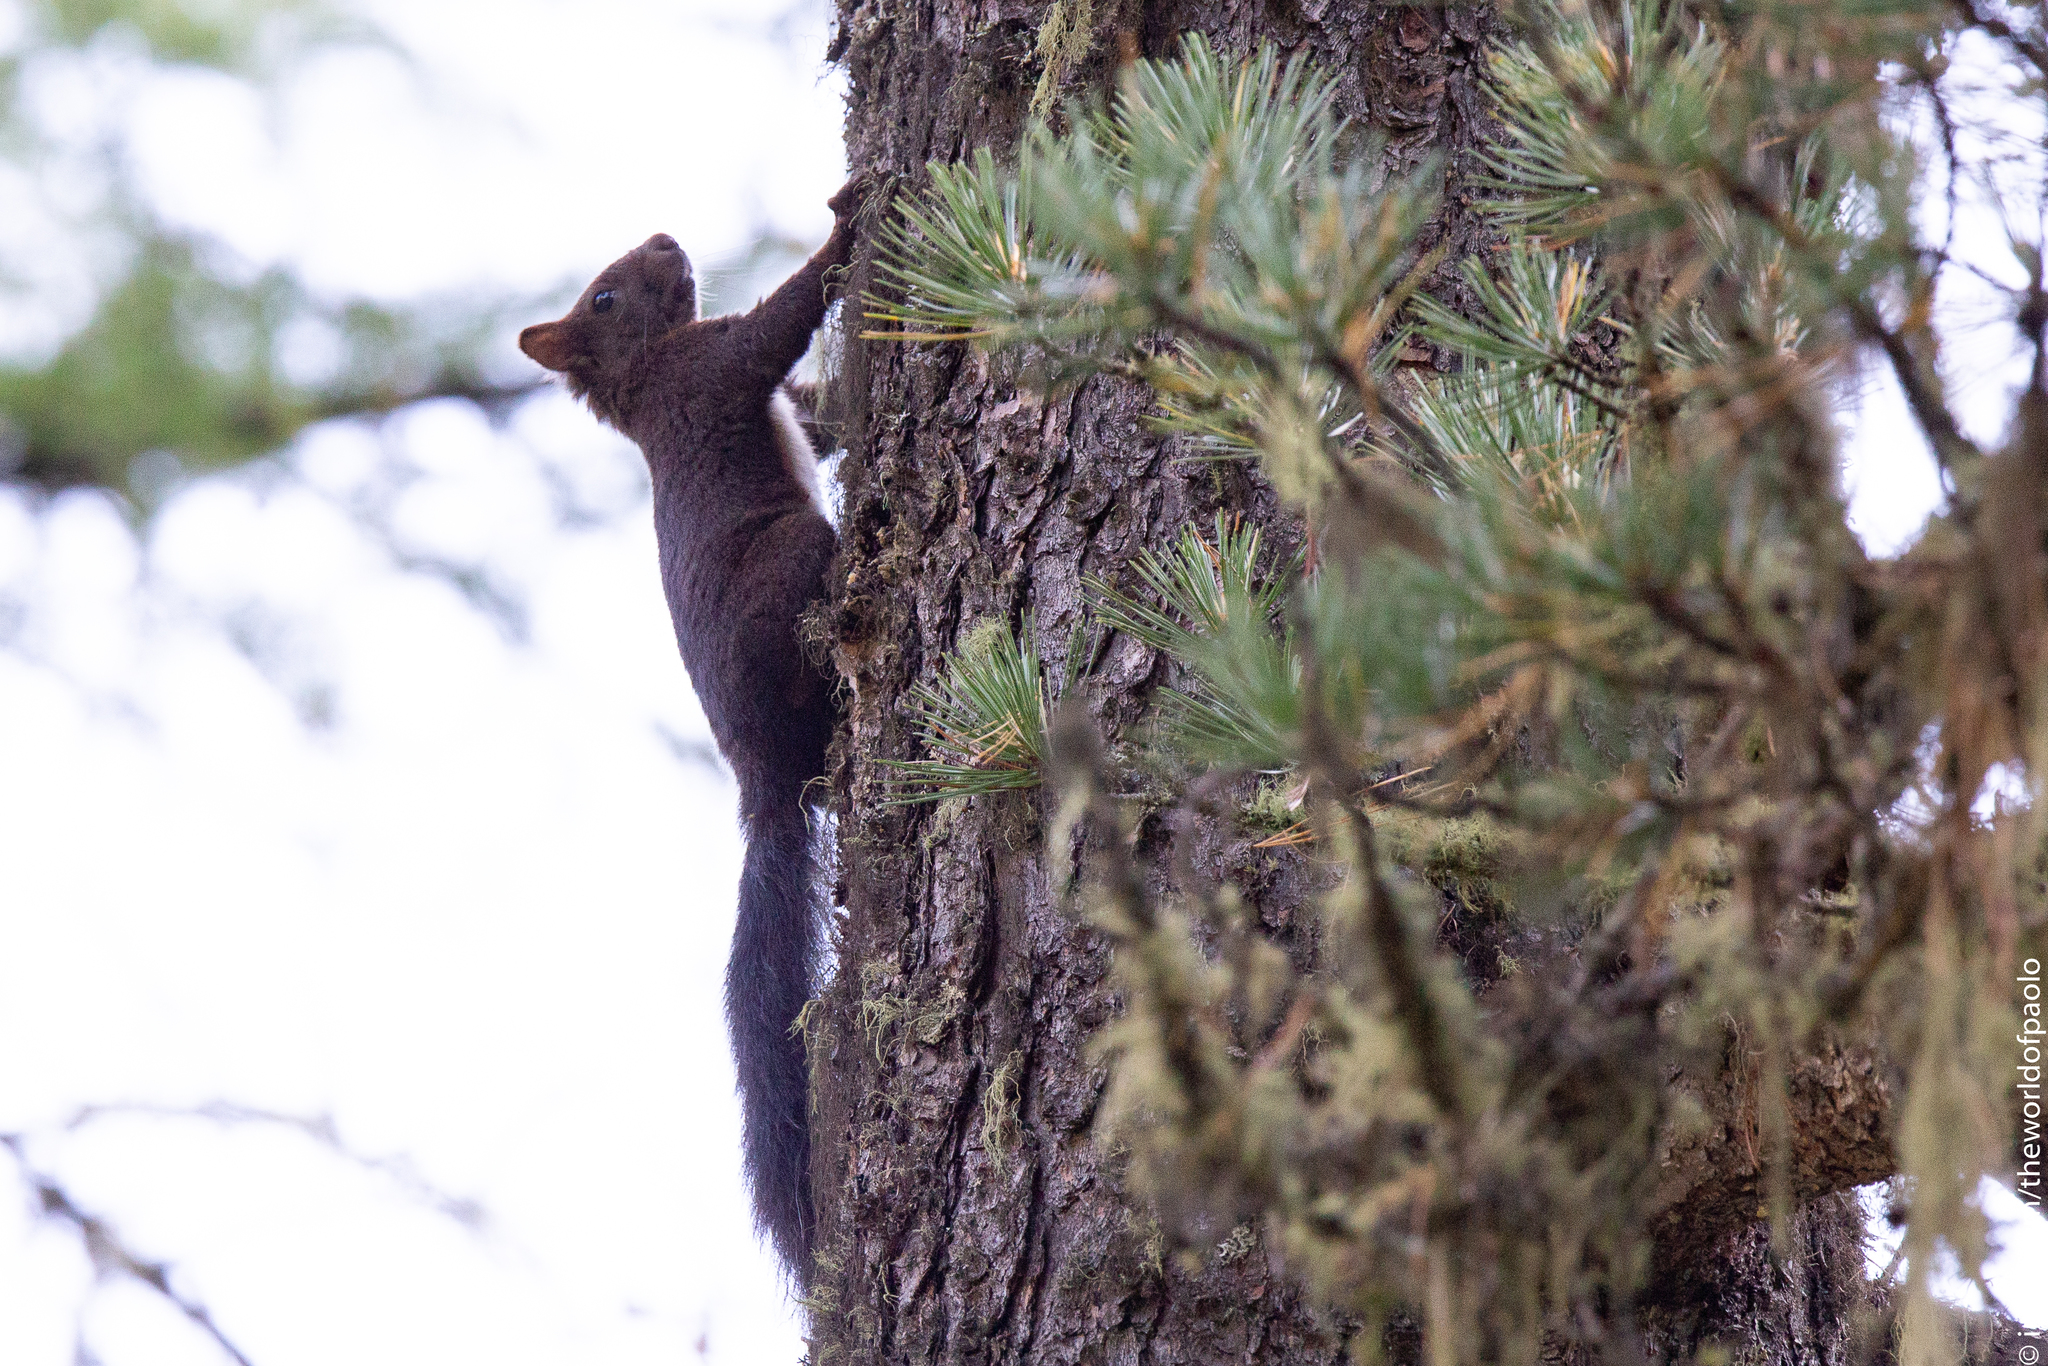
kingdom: Animalia
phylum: Chordata
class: Mammalia
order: Rodentia
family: Sciuridae
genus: Sciurus
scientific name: Sciurus vulgaris
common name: Eurasian red squirrel
